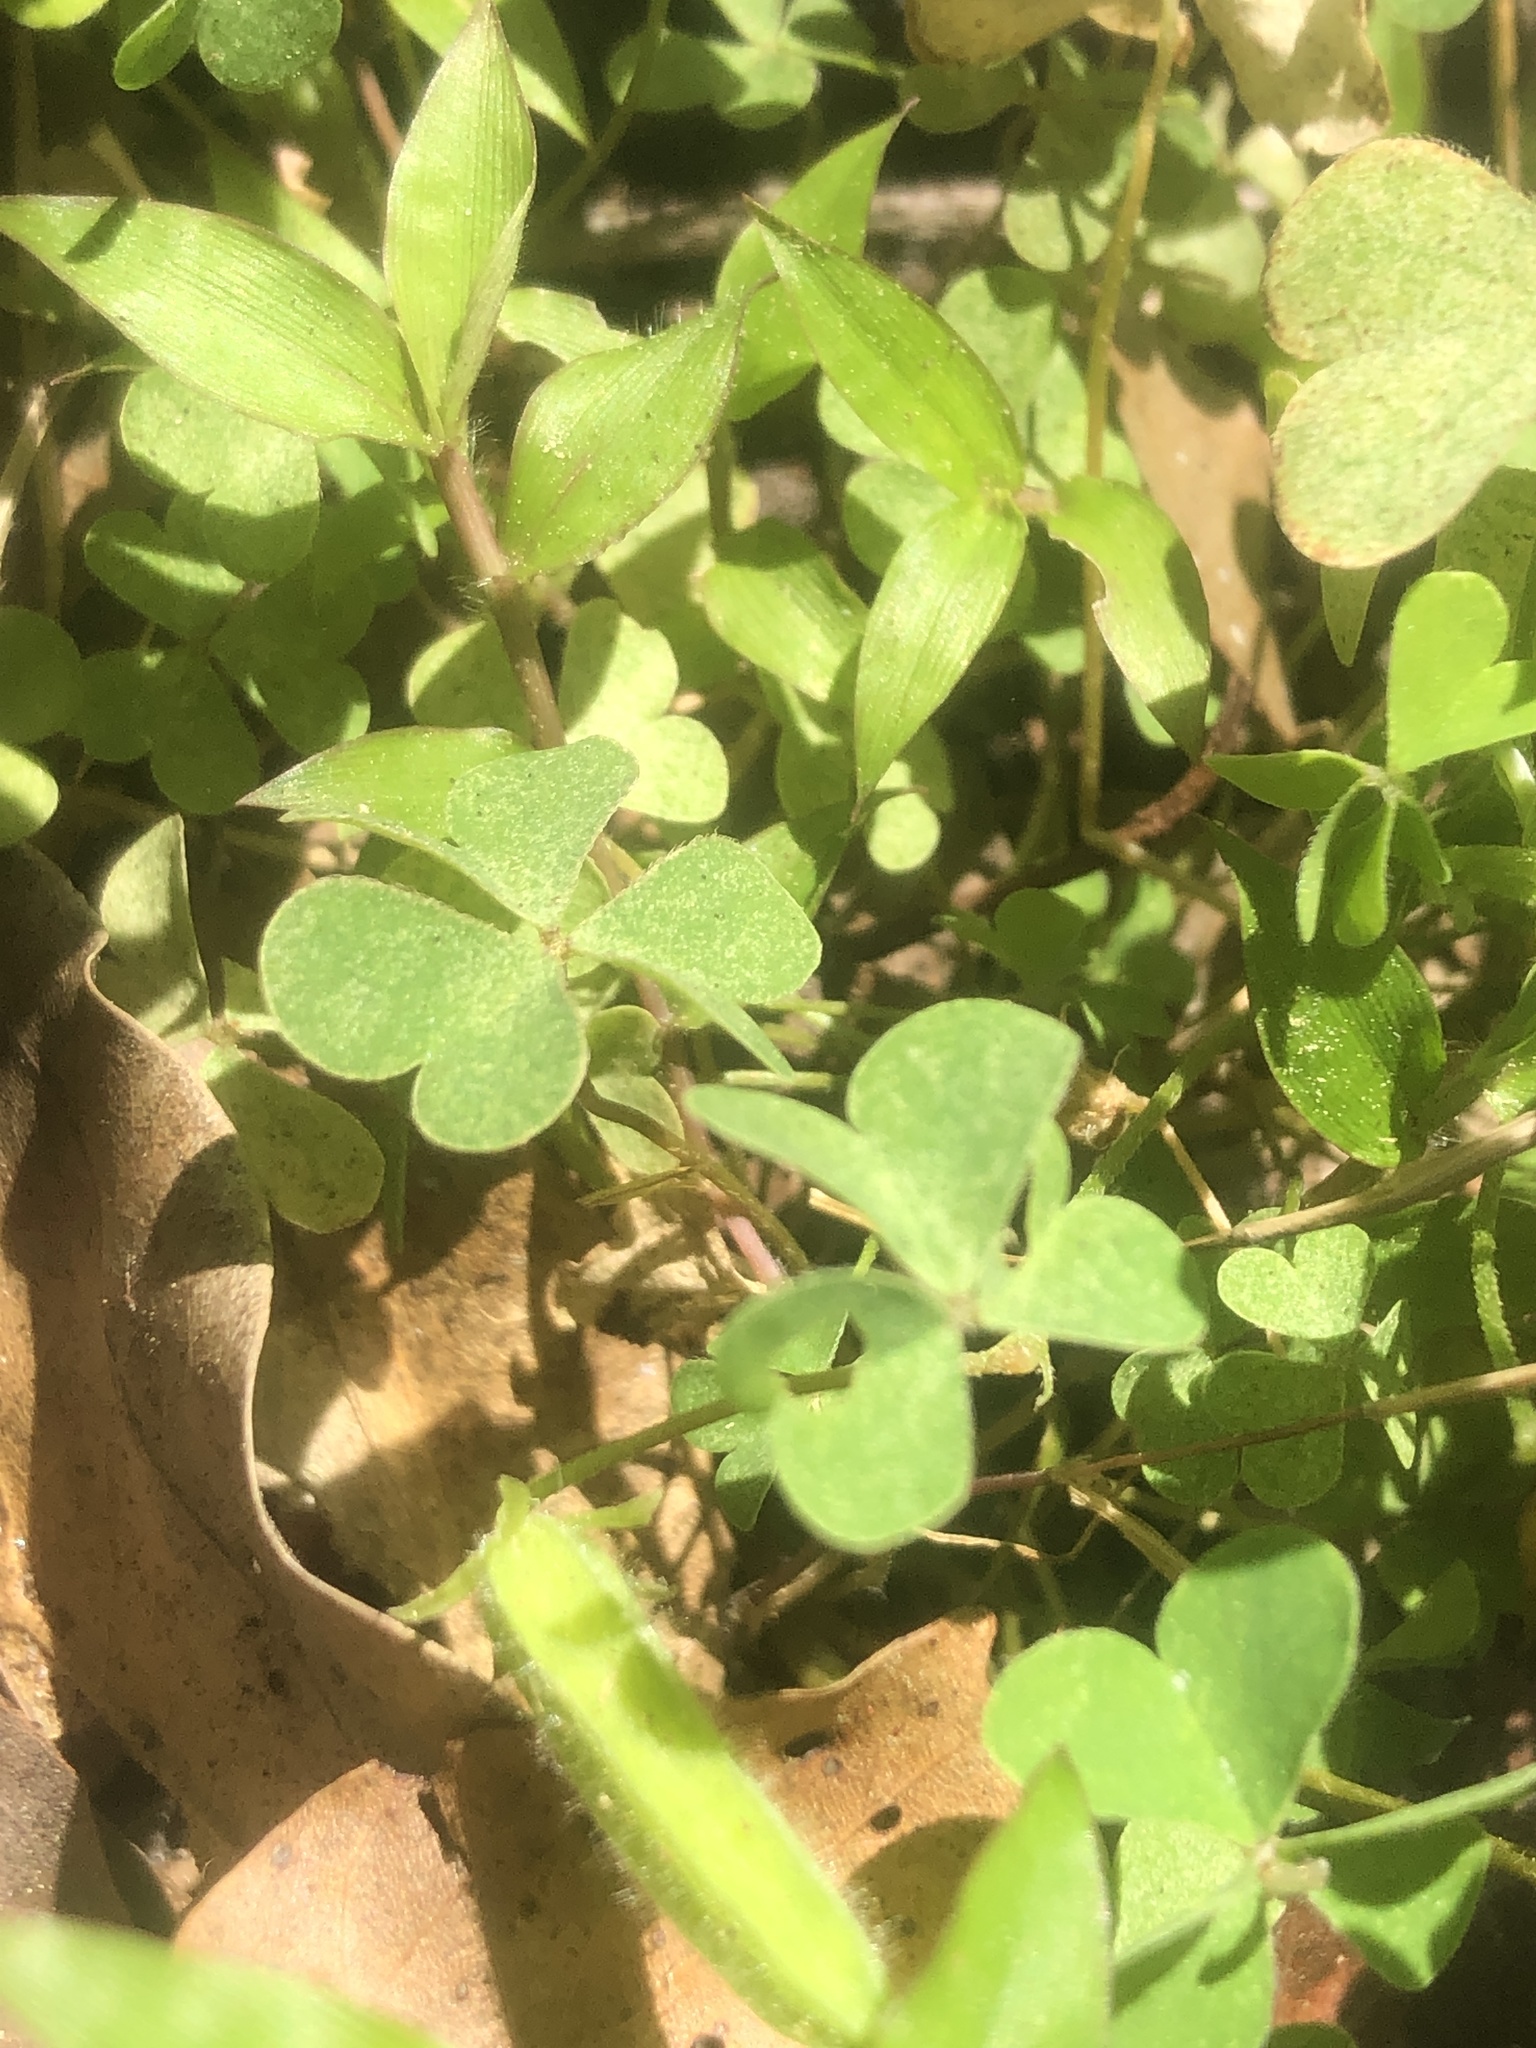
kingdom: Plantae
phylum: Tracheophyta
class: Magnoliopsida
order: Oxalidales
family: Oxalidaceae
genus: Oxalis
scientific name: Oxalis corniculata
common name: Procumbent yellow-sorrel
